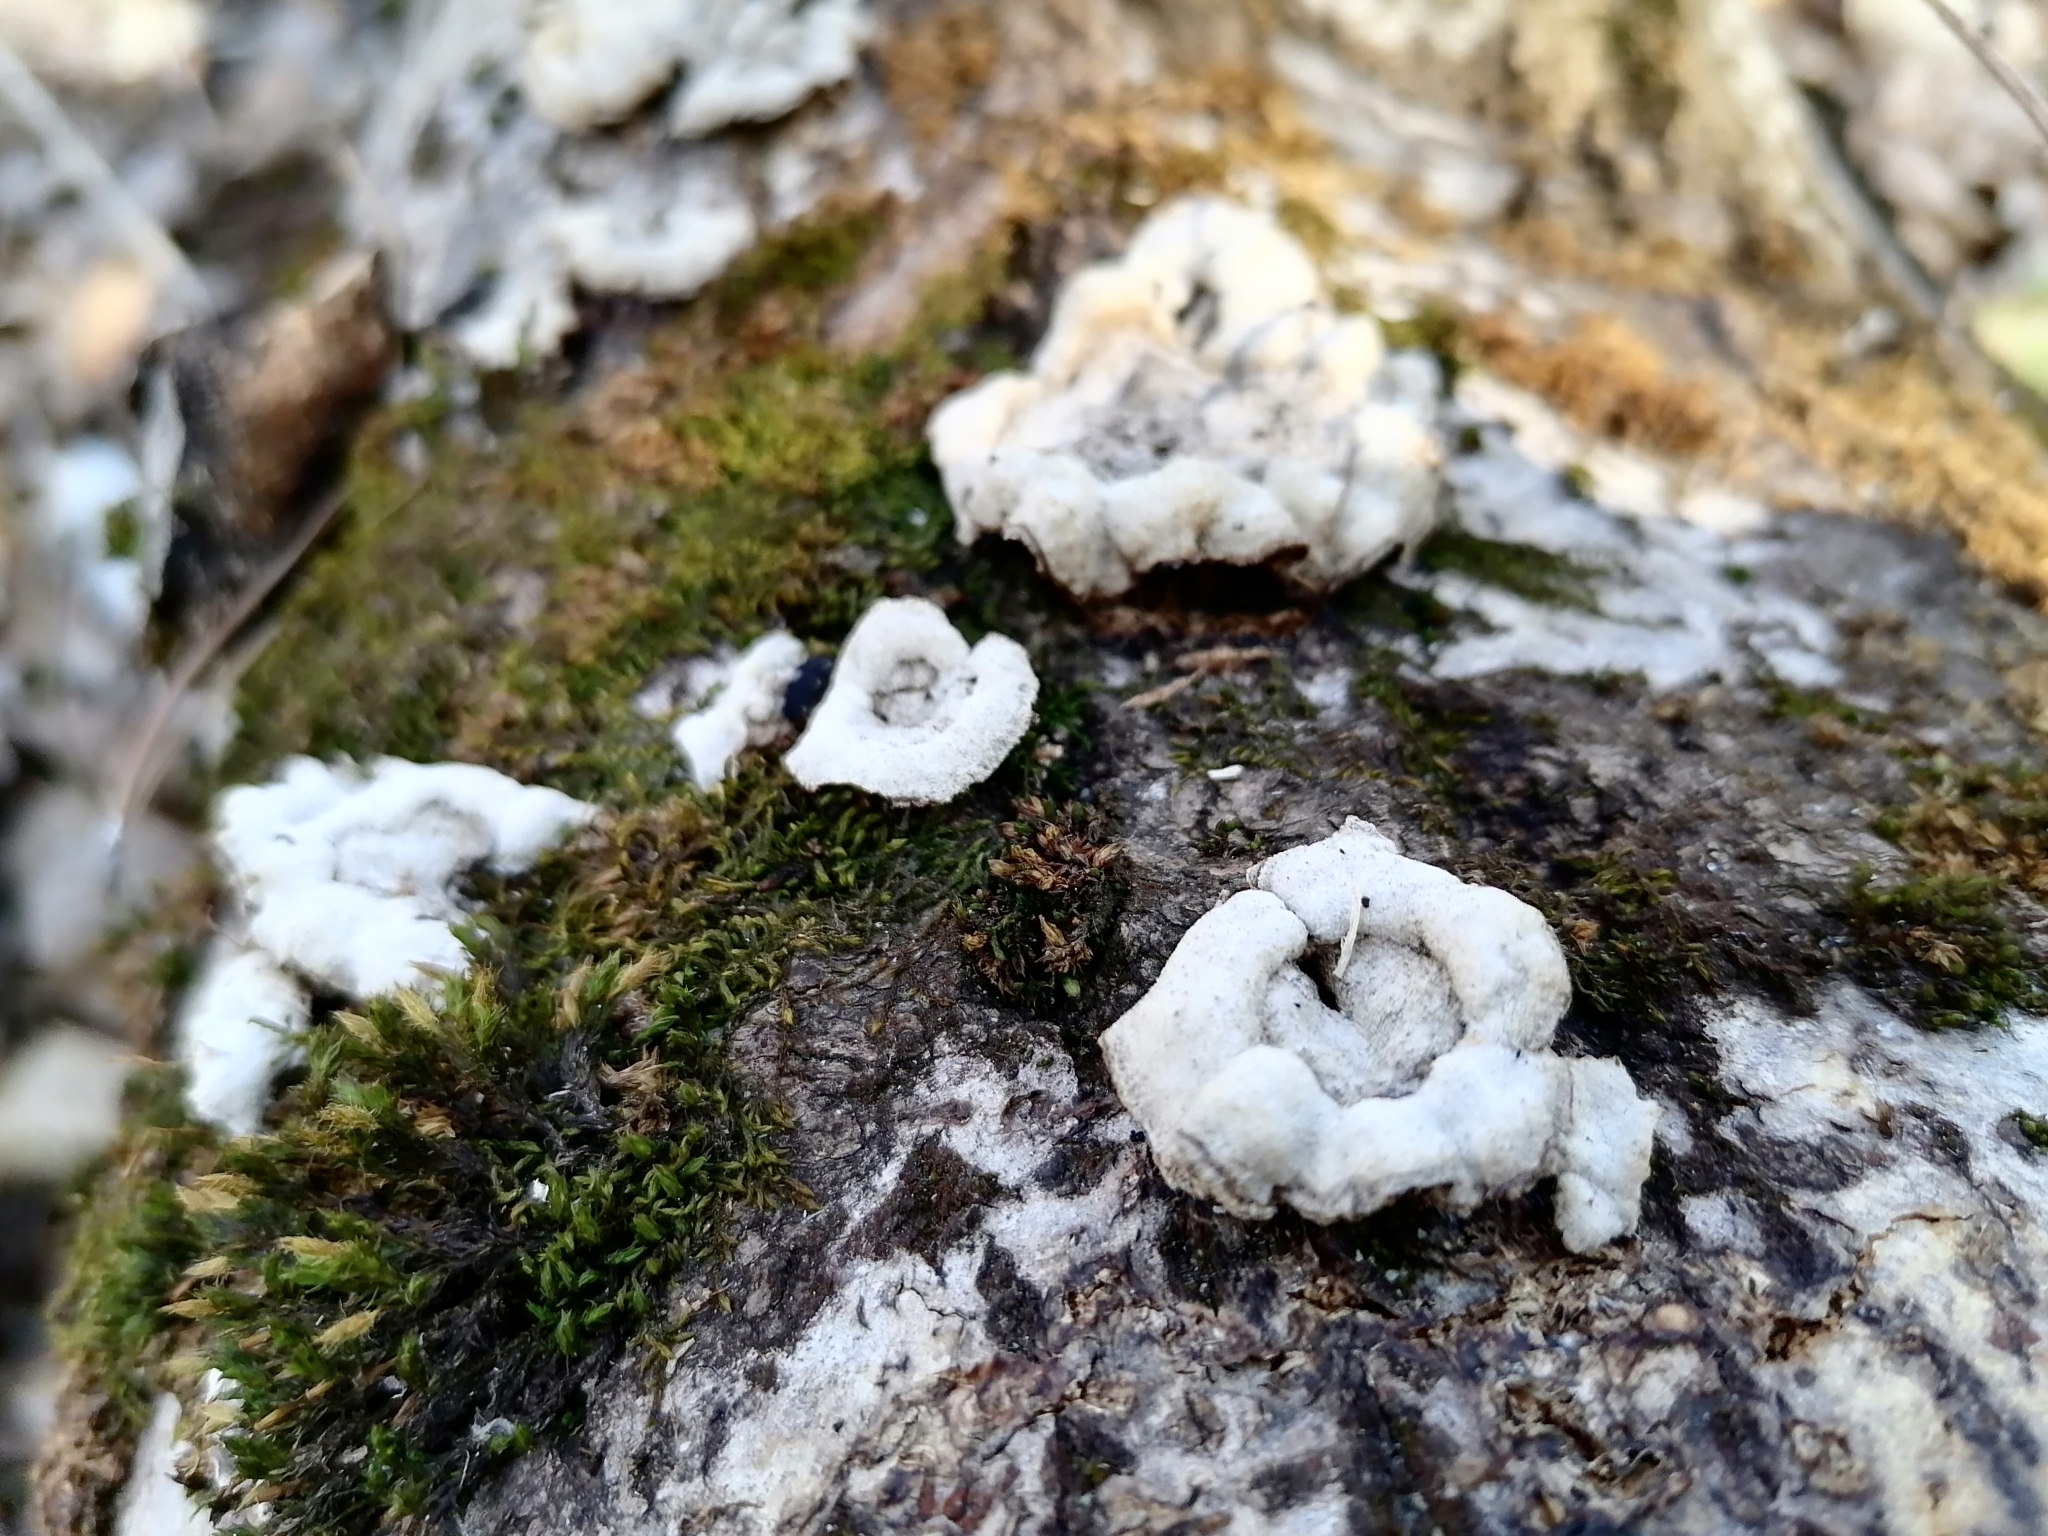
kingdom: Fungi
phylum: Basidiomycota
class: Agaricomycetes
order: Auriculariales
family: Auriculariaceae
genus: Auricularia
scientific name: Auricularia mesenterica
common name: Tripe fungus
